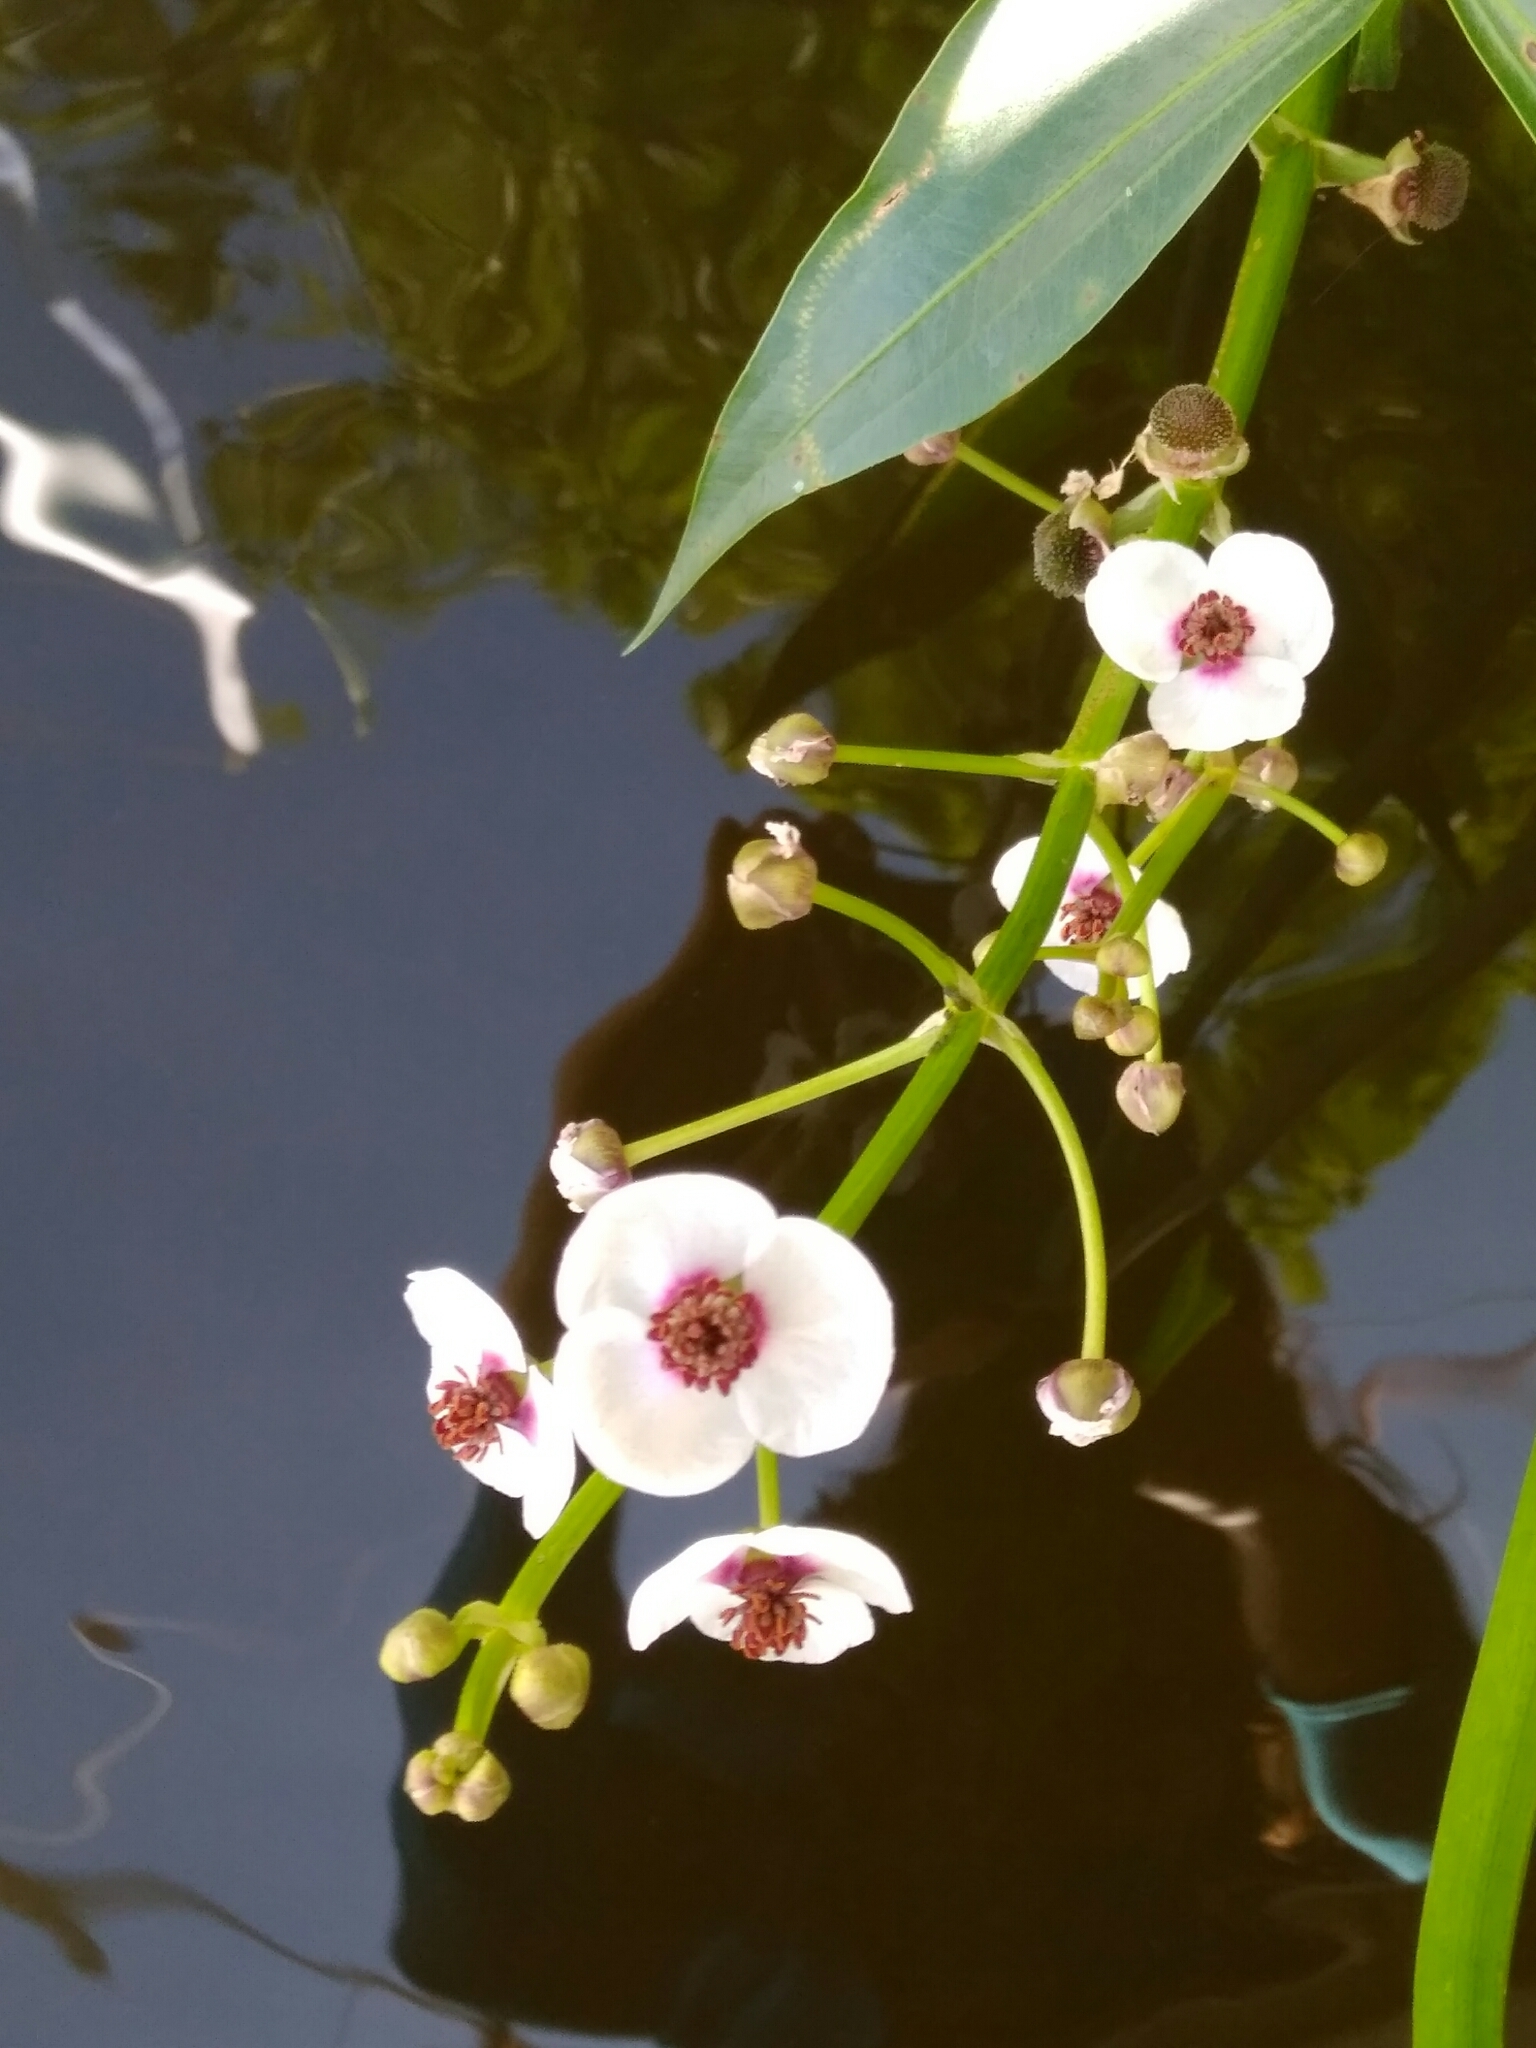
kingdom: Plantae
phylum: Tracheophyta
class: Liliopsida
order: Alismatales
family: Alismataceae
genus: Sagittaria
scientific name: Sagittaria sagittifolia
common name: Arrowhead
